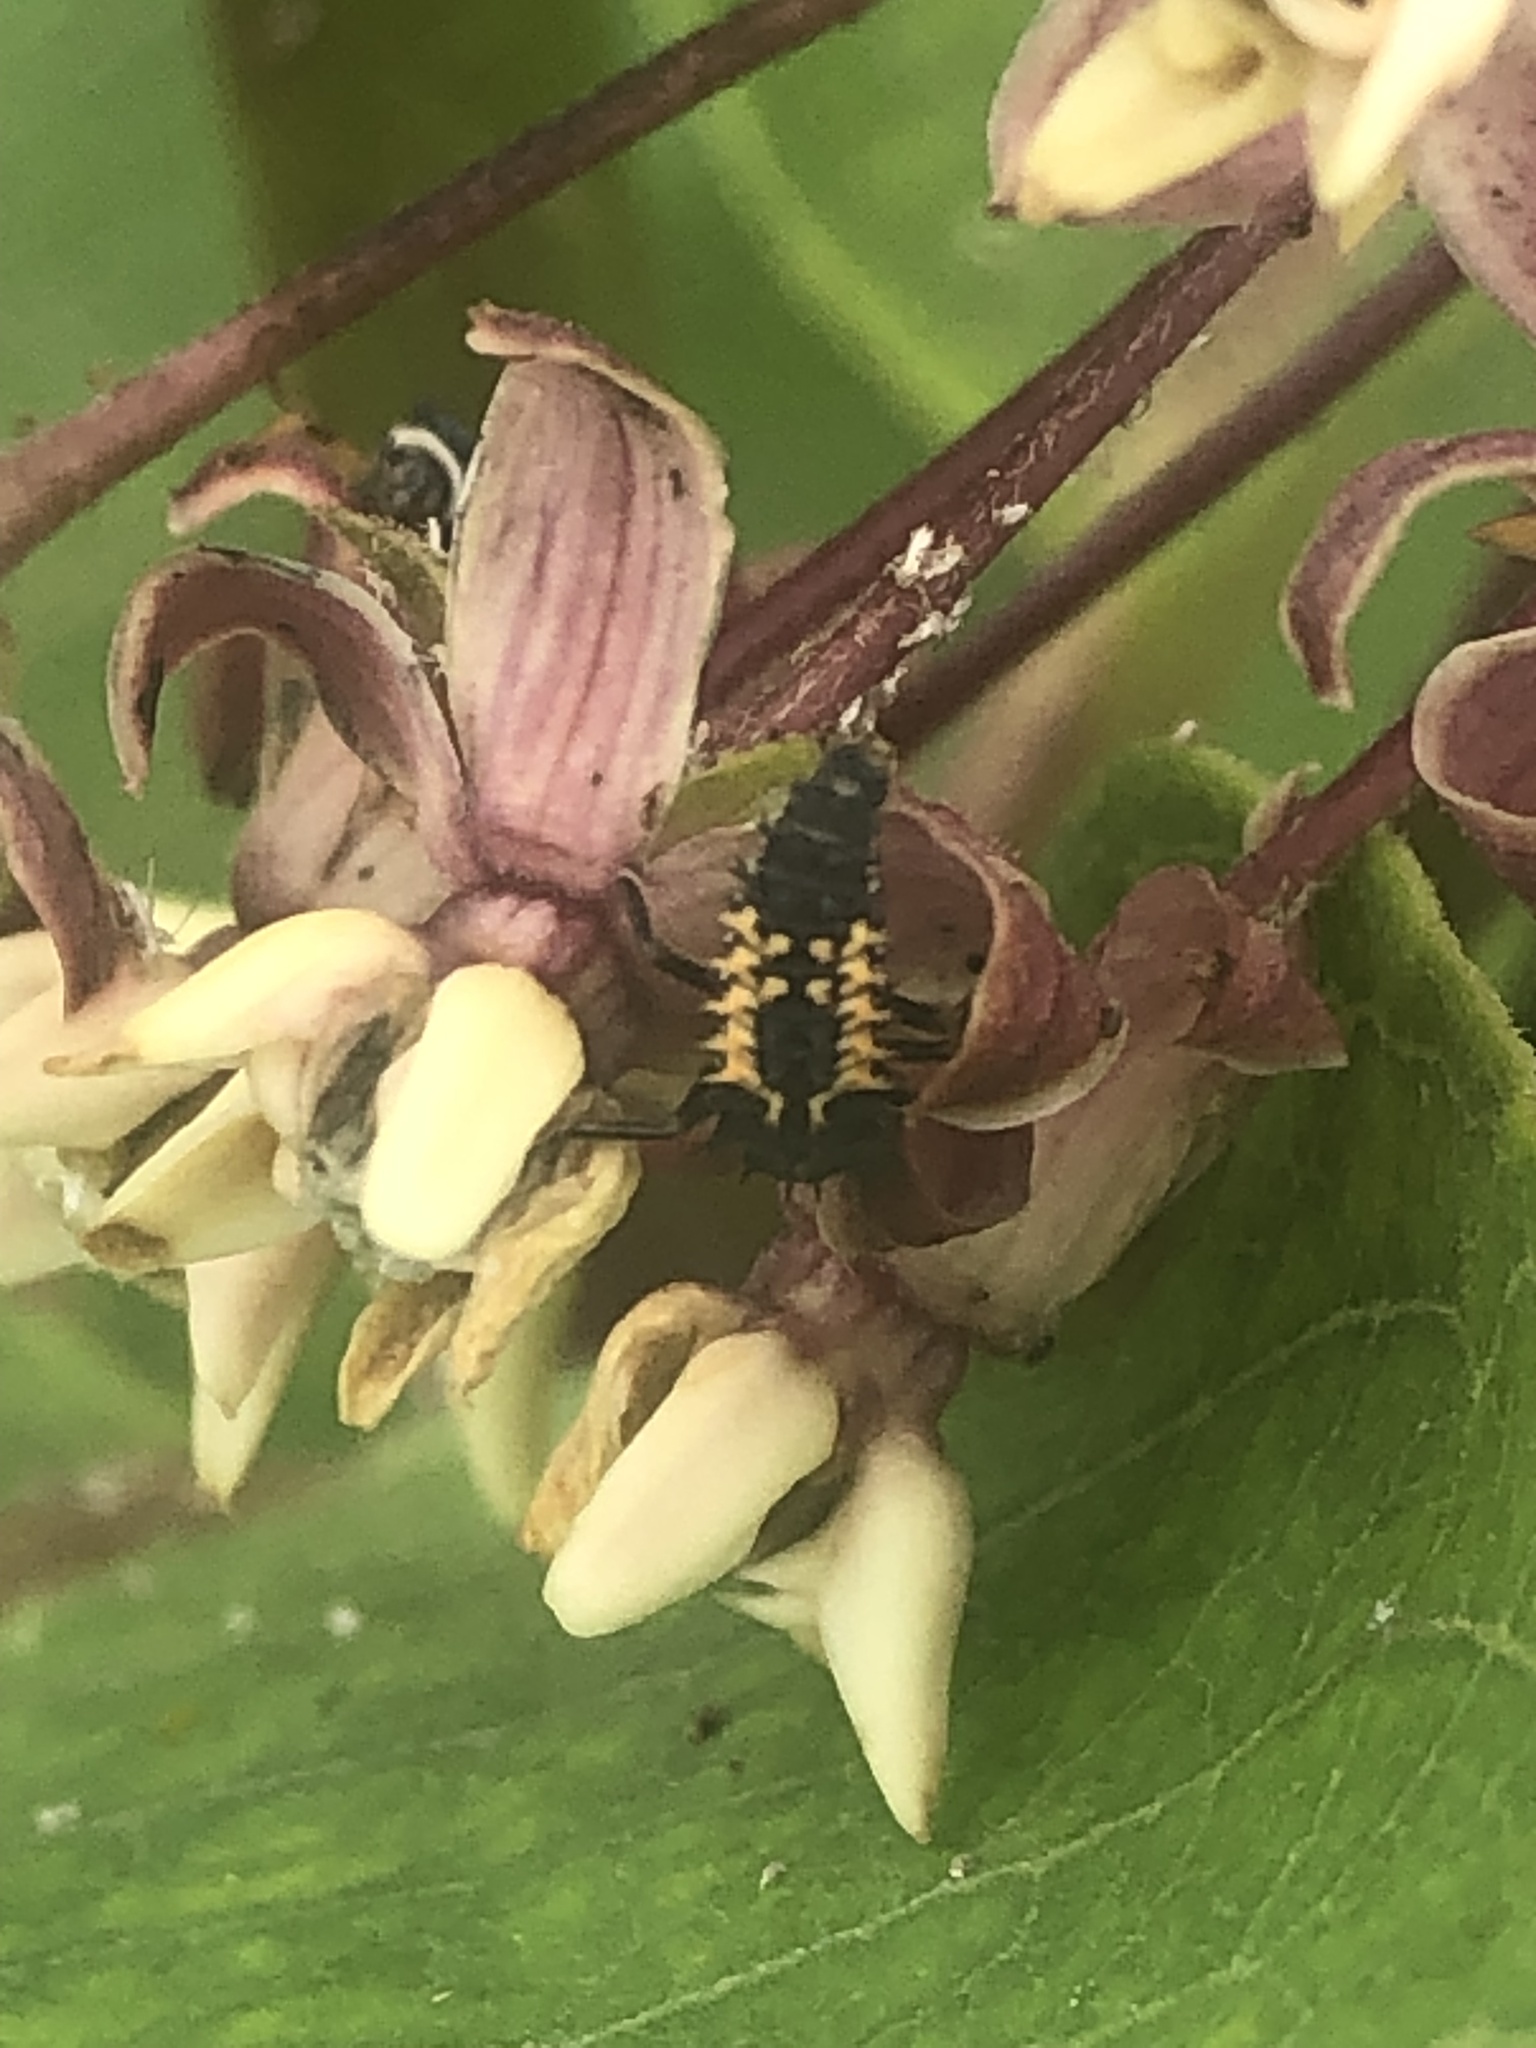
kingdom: Animalia
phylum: Arthropoda
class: Insecta
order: Coleoptera
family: Coccinellidae
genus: Harmonia
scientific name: Harmonia axyridis
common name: Harlequin ladybird
